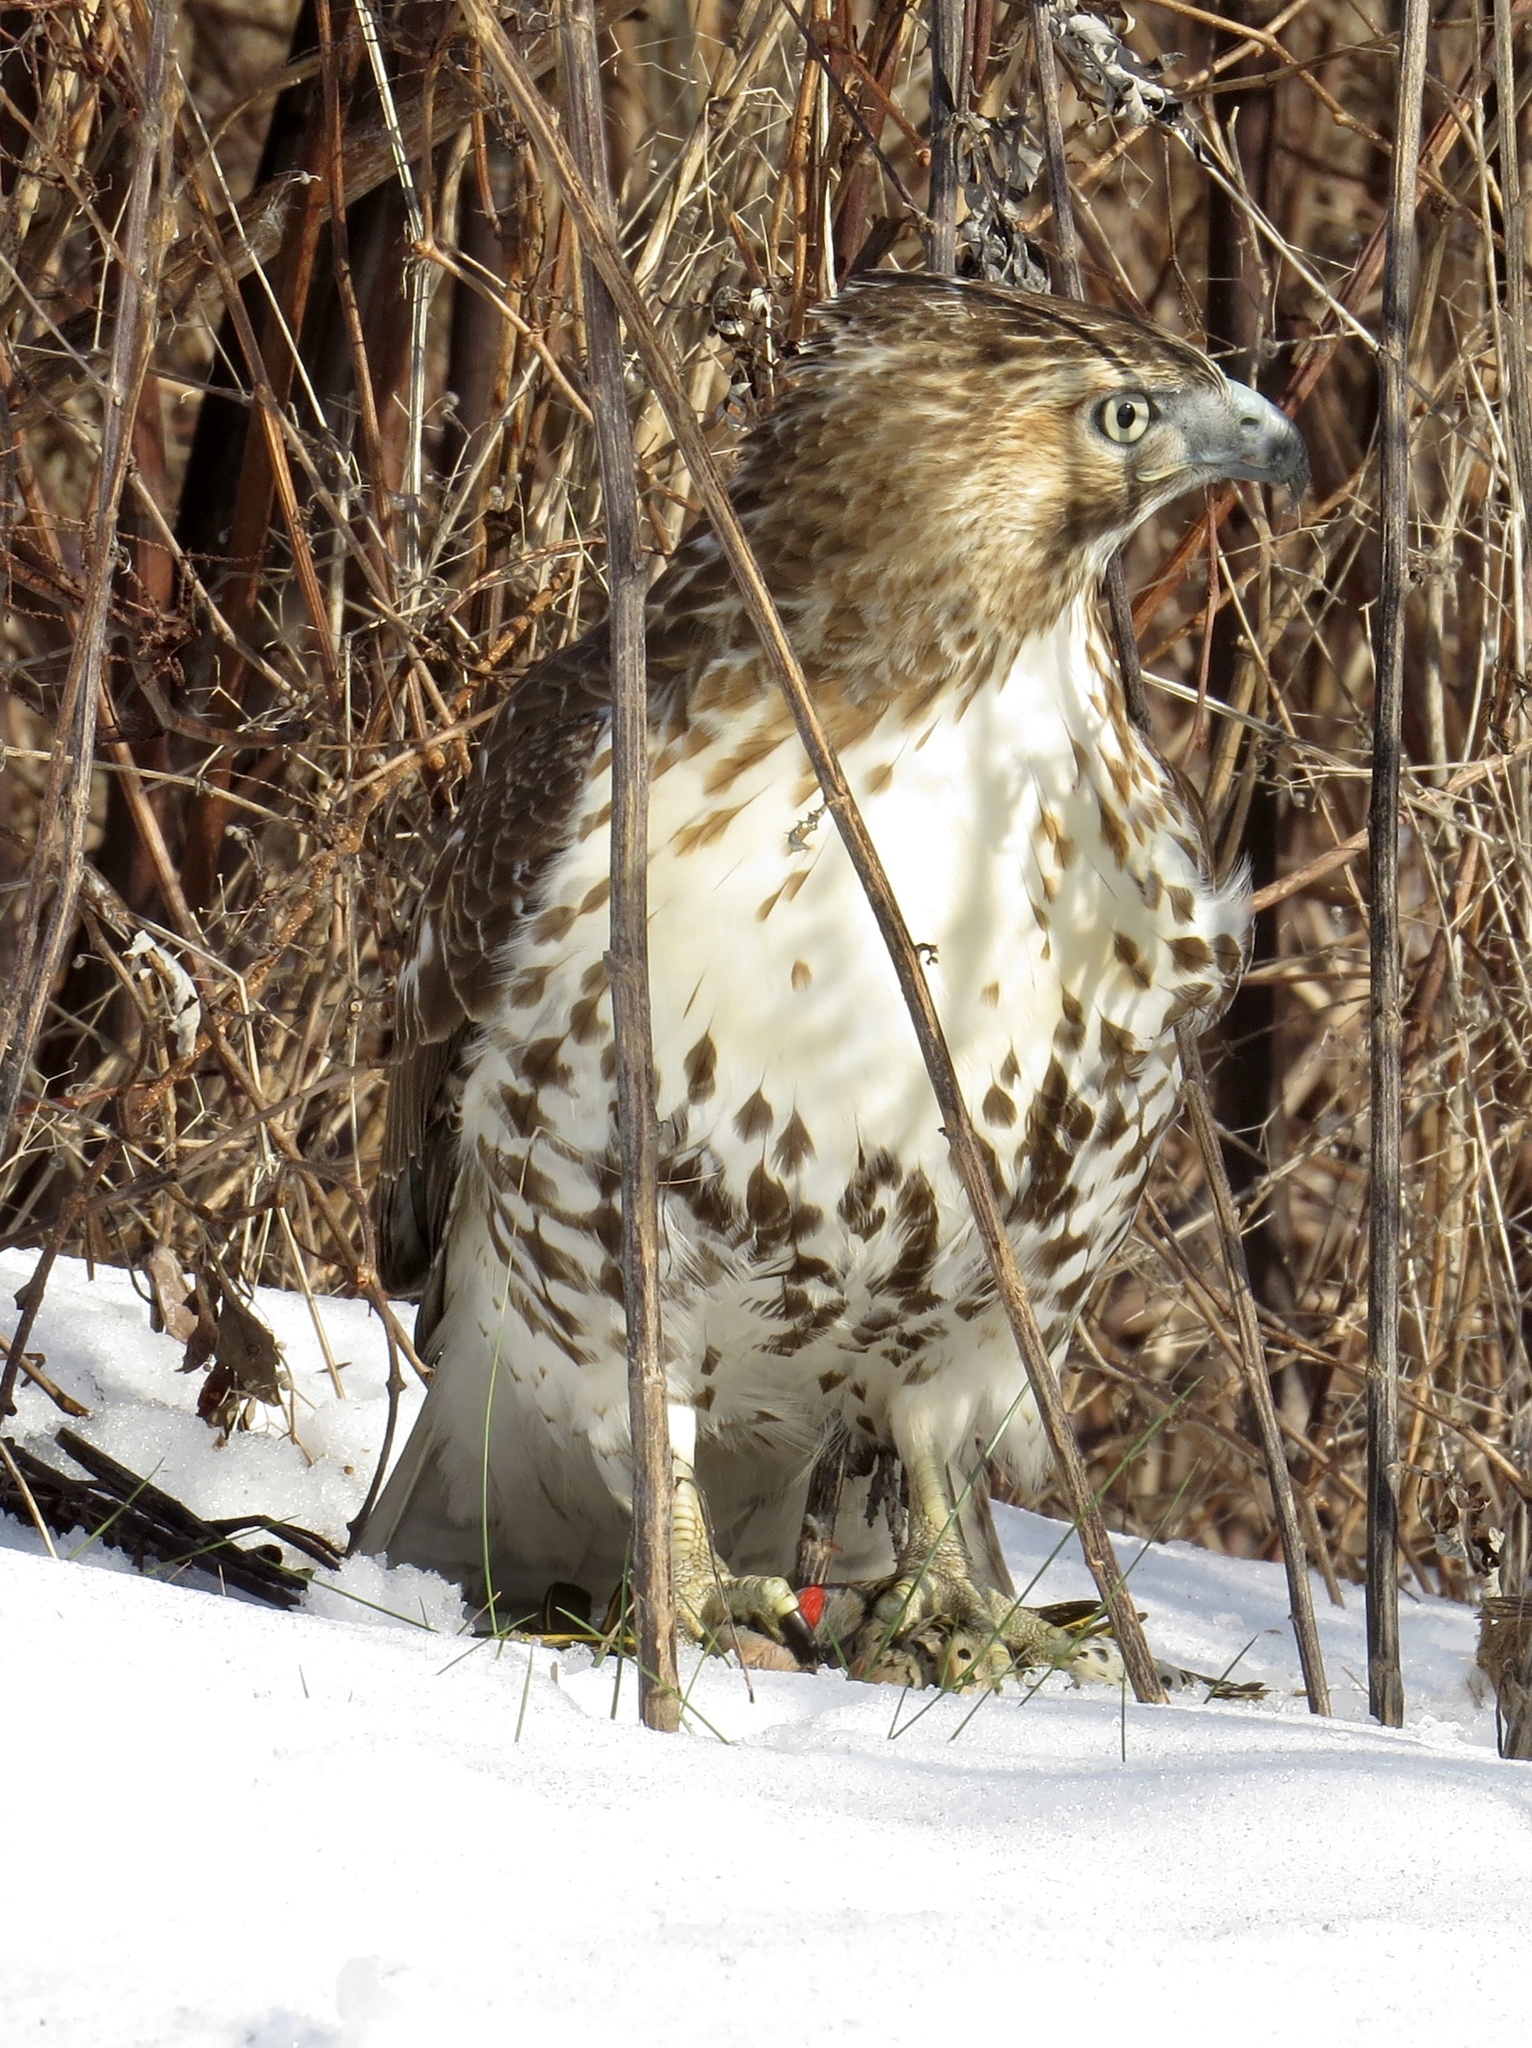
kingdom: Animalia
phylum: Chordata
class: Aves
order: Accipitriformes
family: Accipitridae
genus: Buteo
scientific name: Buteo jamaicensis
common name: Red-tailed hawk
